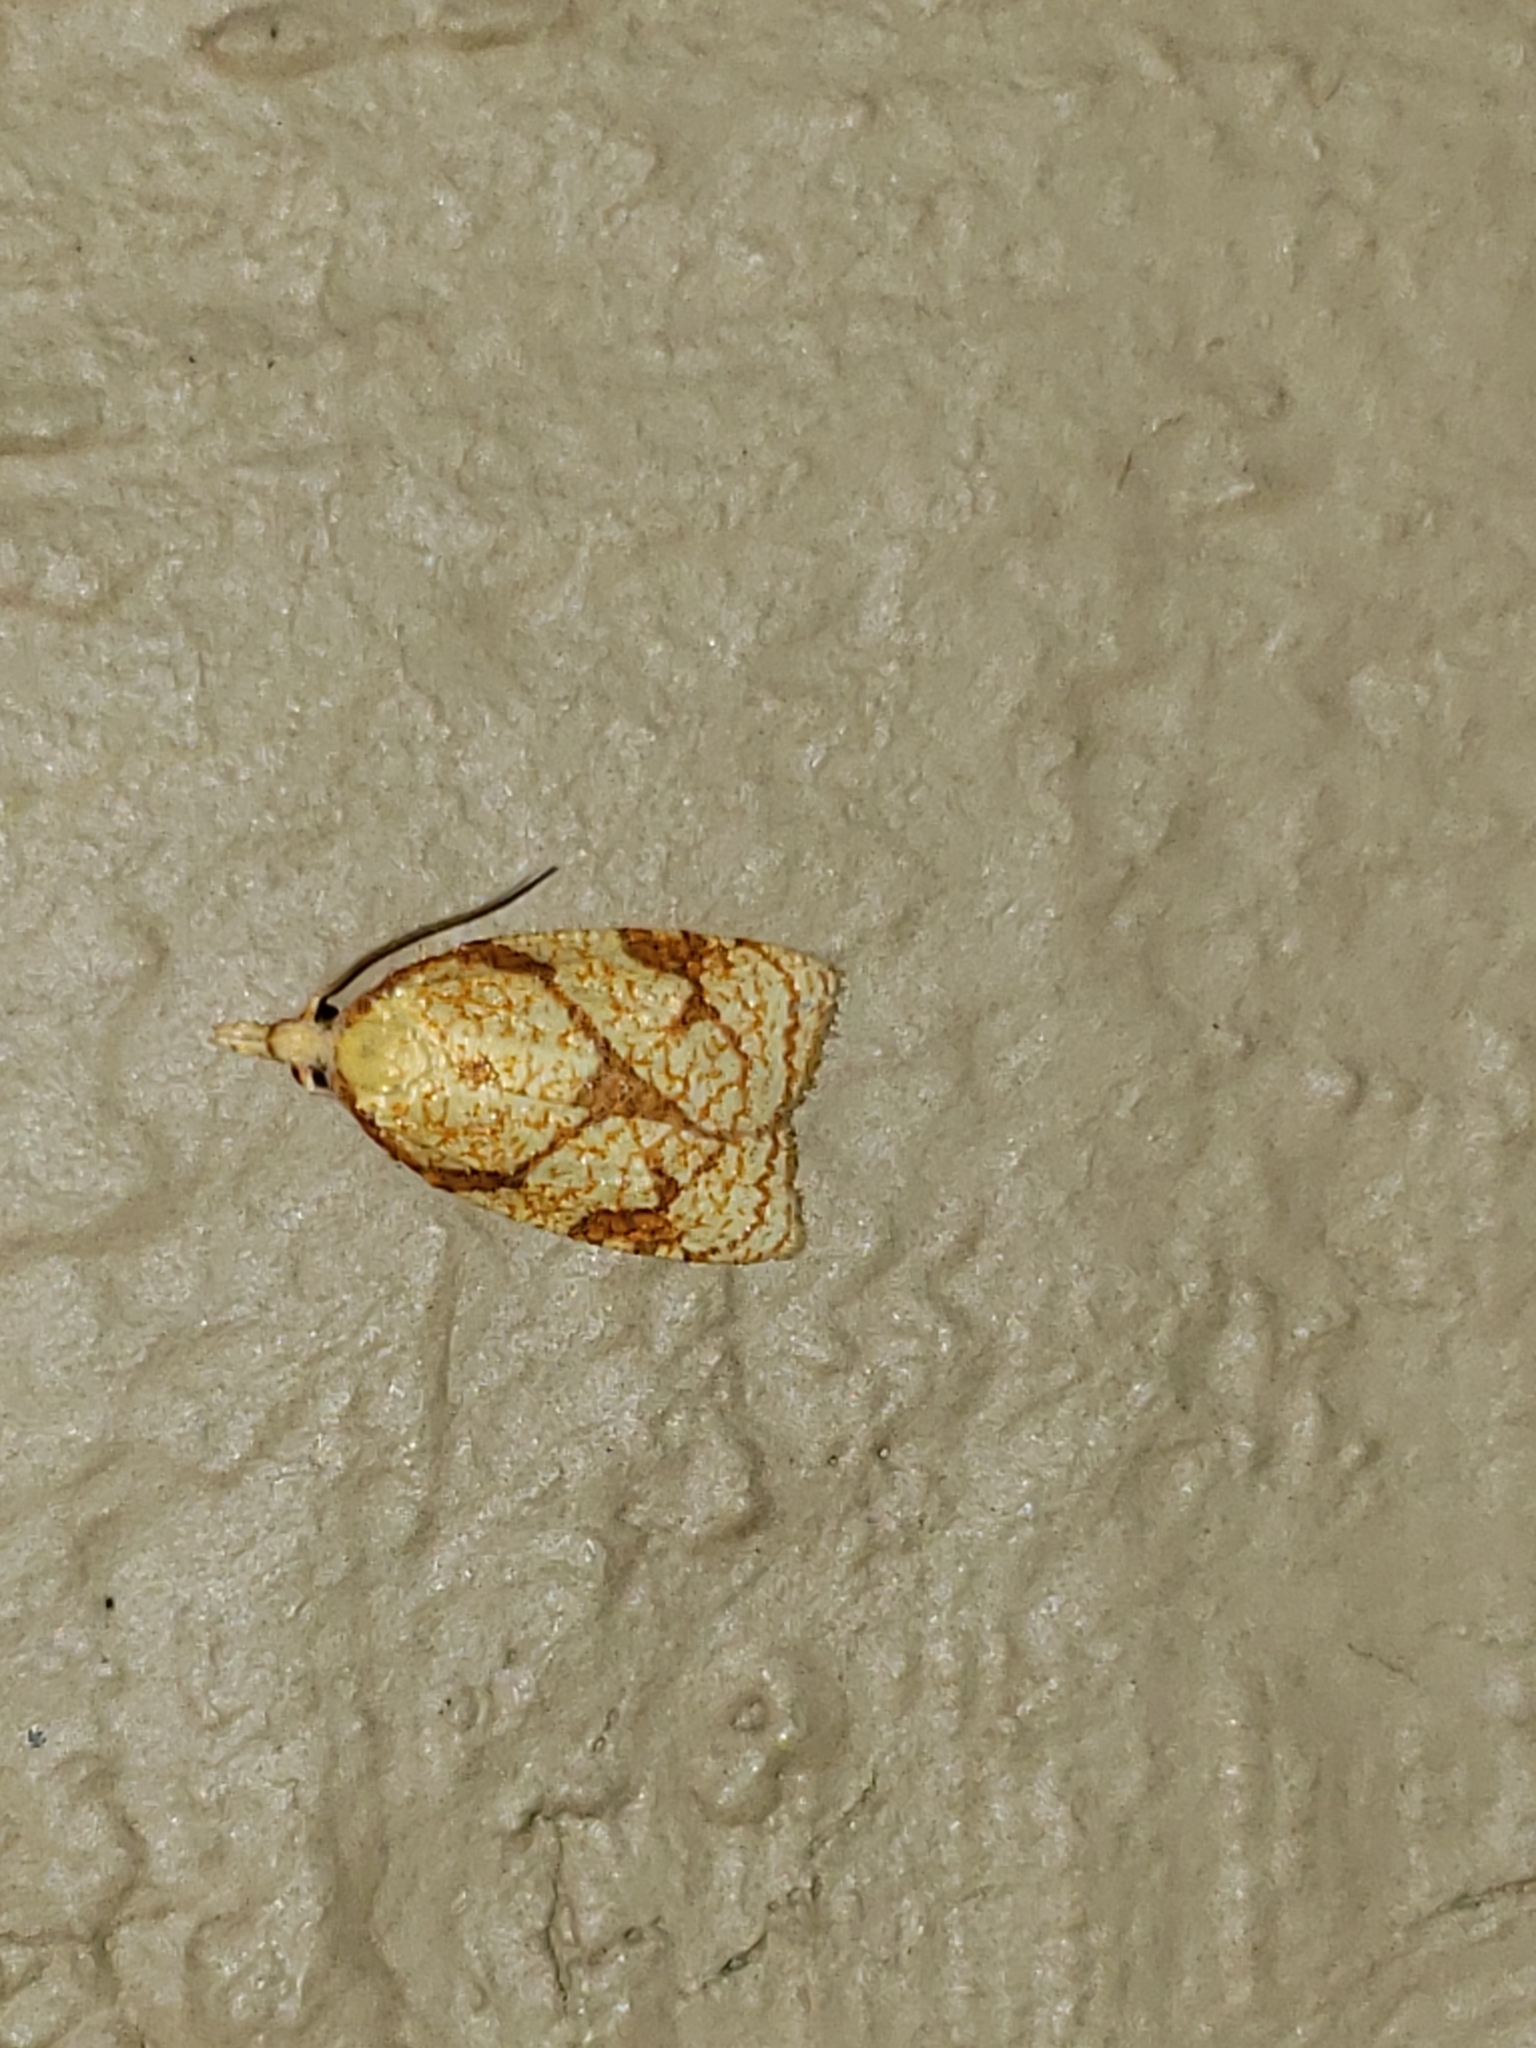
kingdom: Animalia
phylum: Arthropoda
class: Insecta
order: Lepidoptera
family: Tortricidae
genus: Cenopis
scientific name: Cenopis reticulatana
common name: Reticulated fruitworm moth
